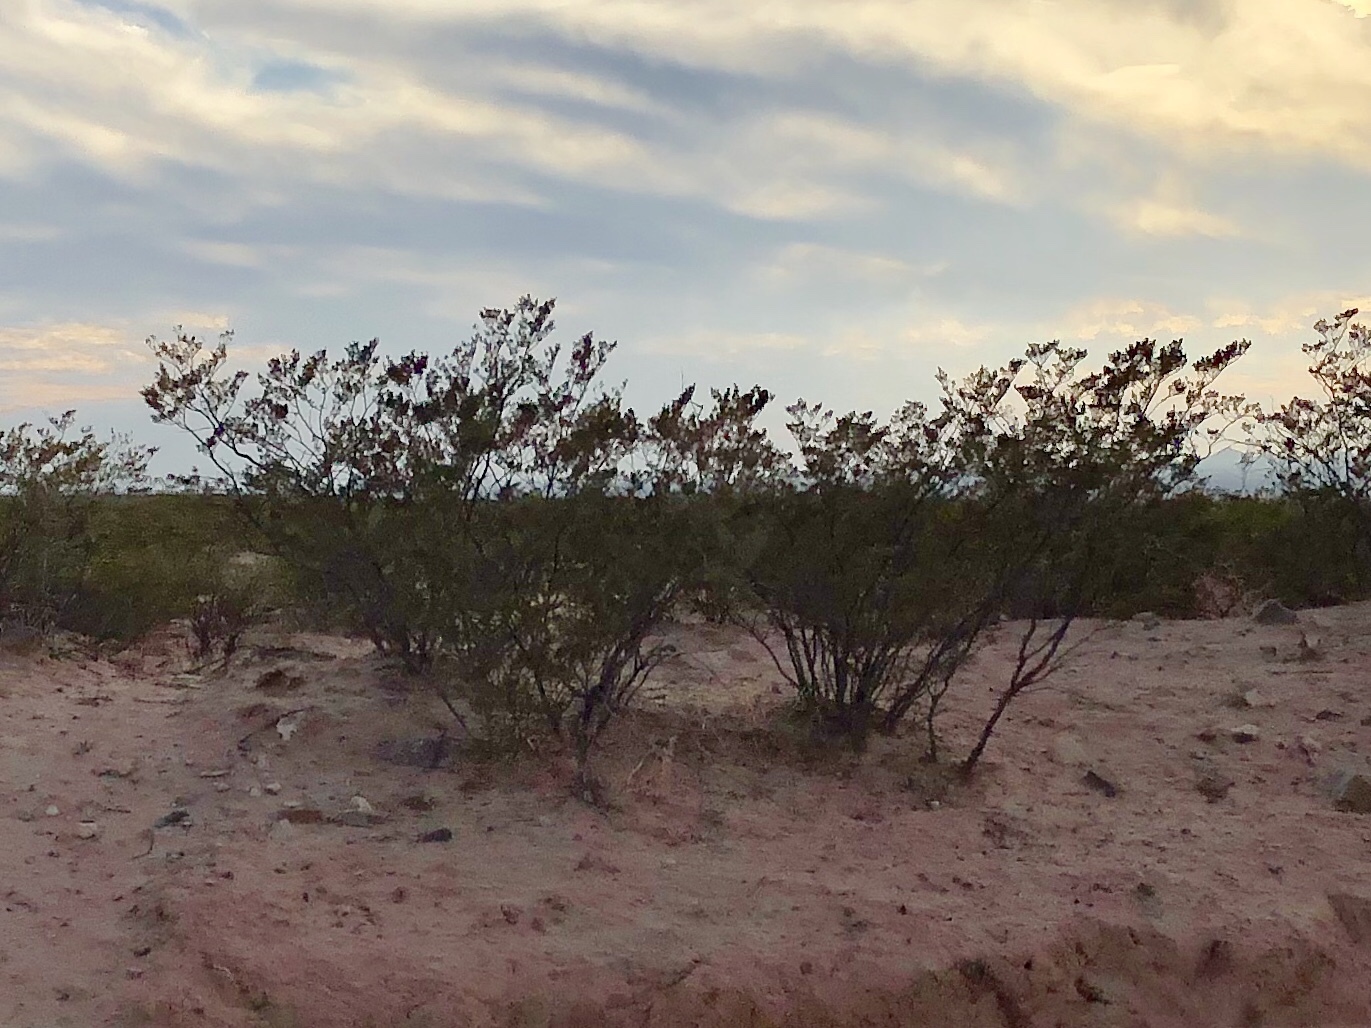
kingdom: Plantae
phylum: Tracheophyta
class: Magnoliopsida
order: Zygophyllales
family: Zygophyllaceae
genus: Larrea
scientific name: Larrea tridentata
